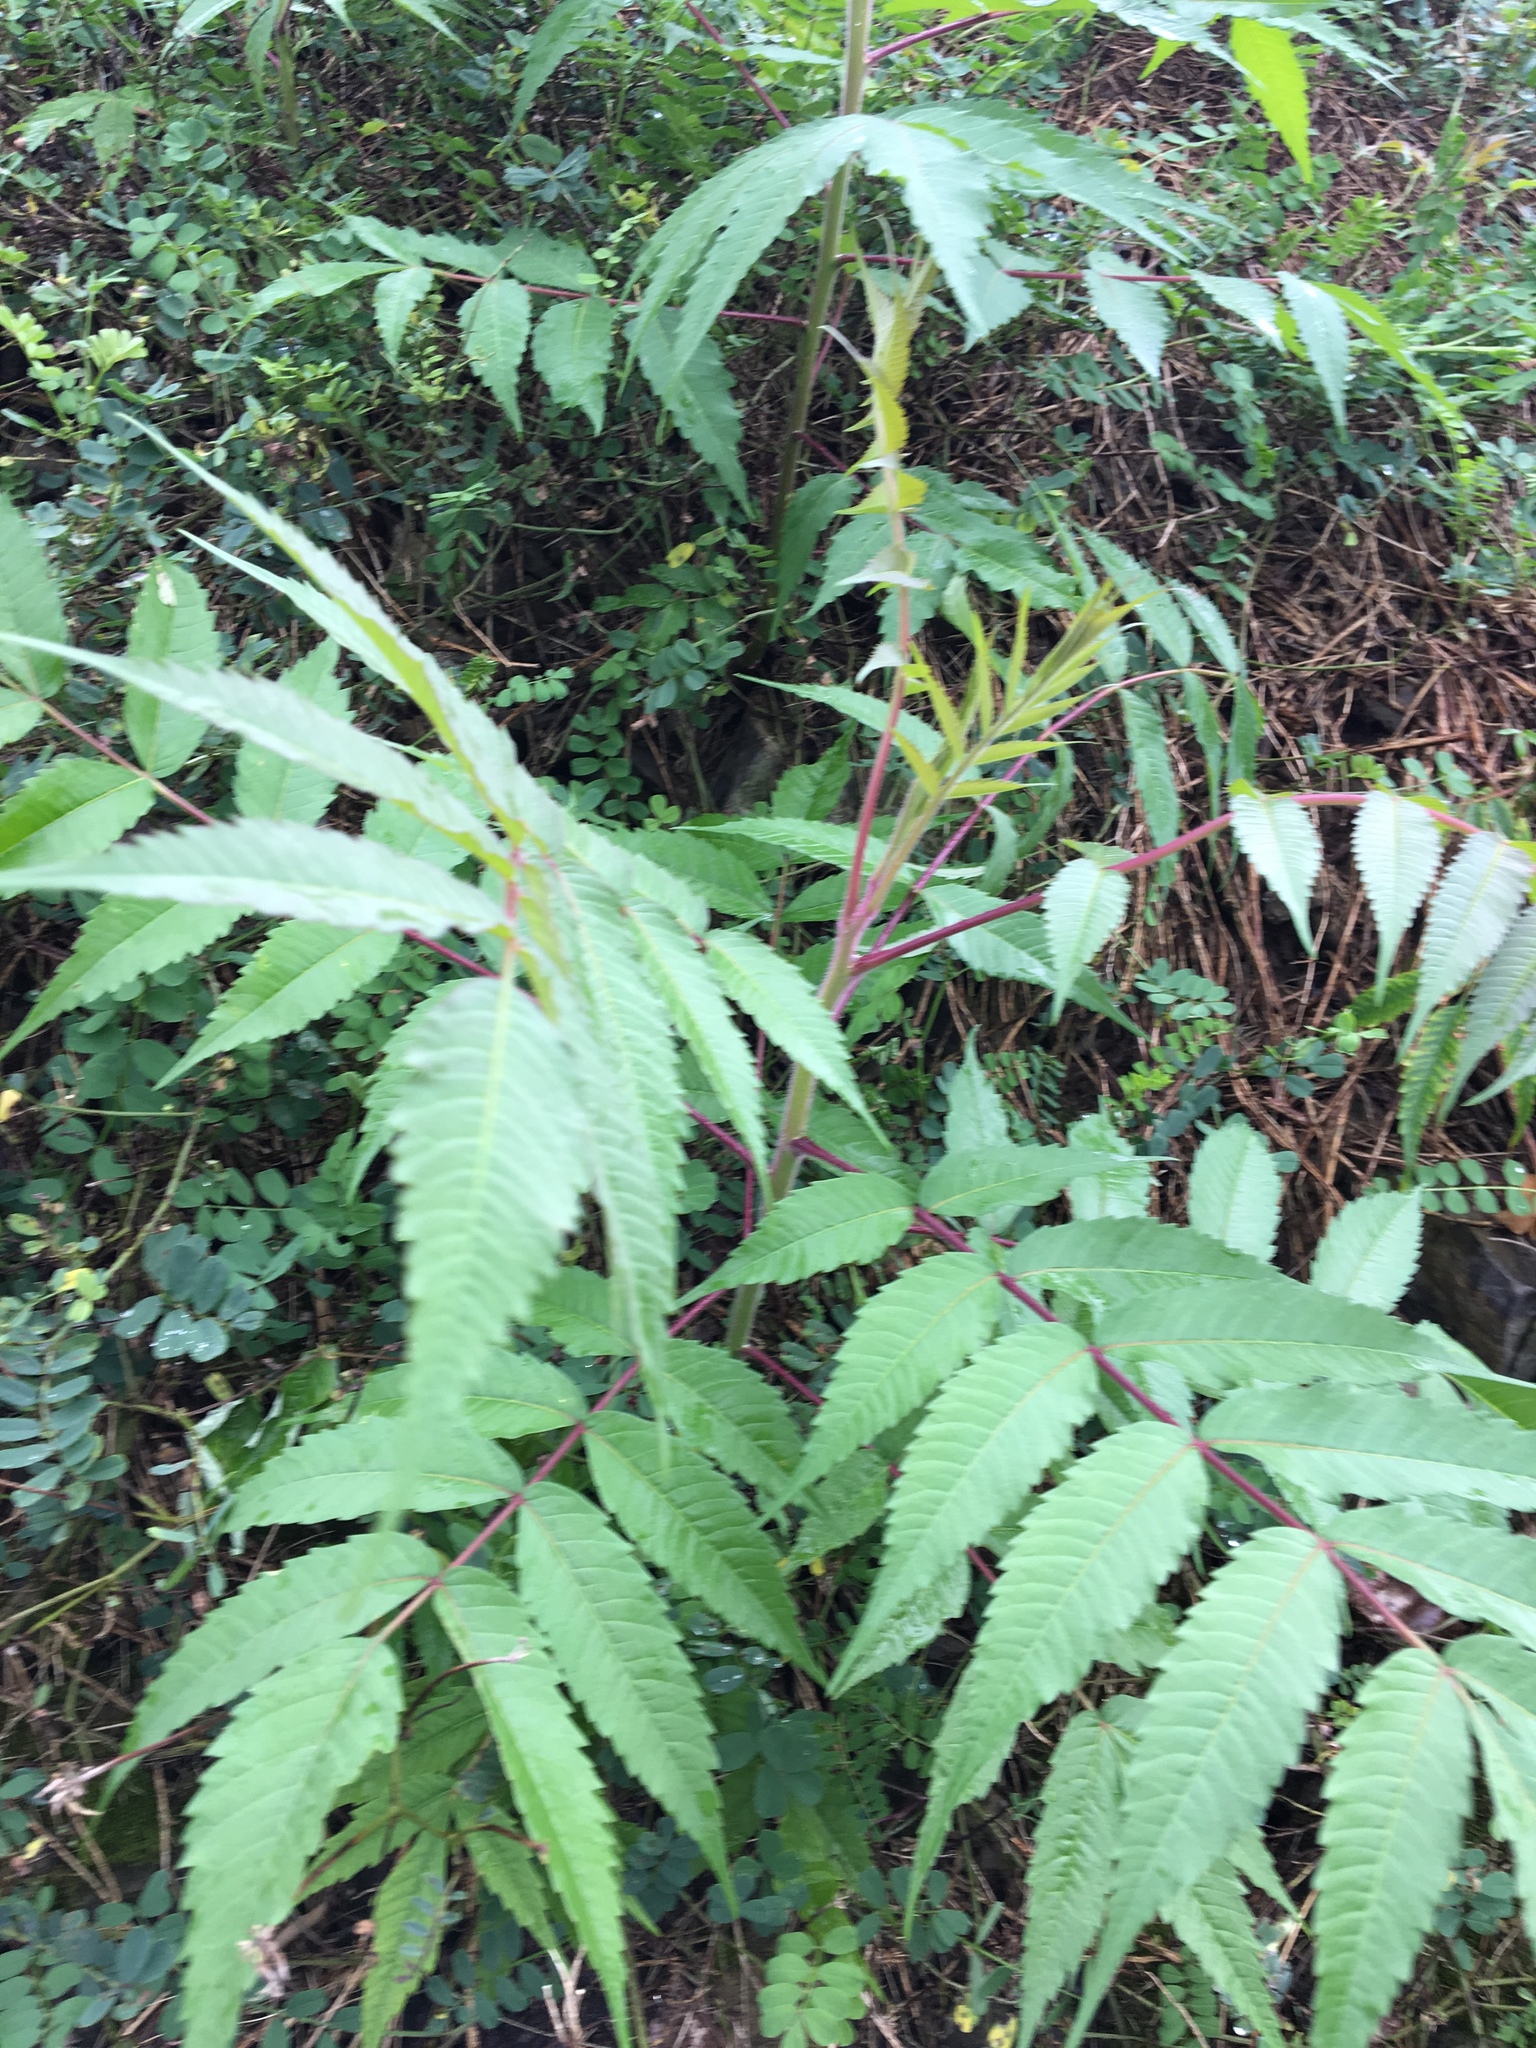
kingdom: Plantae
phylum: Tracheophyta
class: Magnoliopsida
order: Sapindales
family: Anacardiaceae
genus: Rhus
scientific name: Rhus typhina
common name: Staghorn sumac
